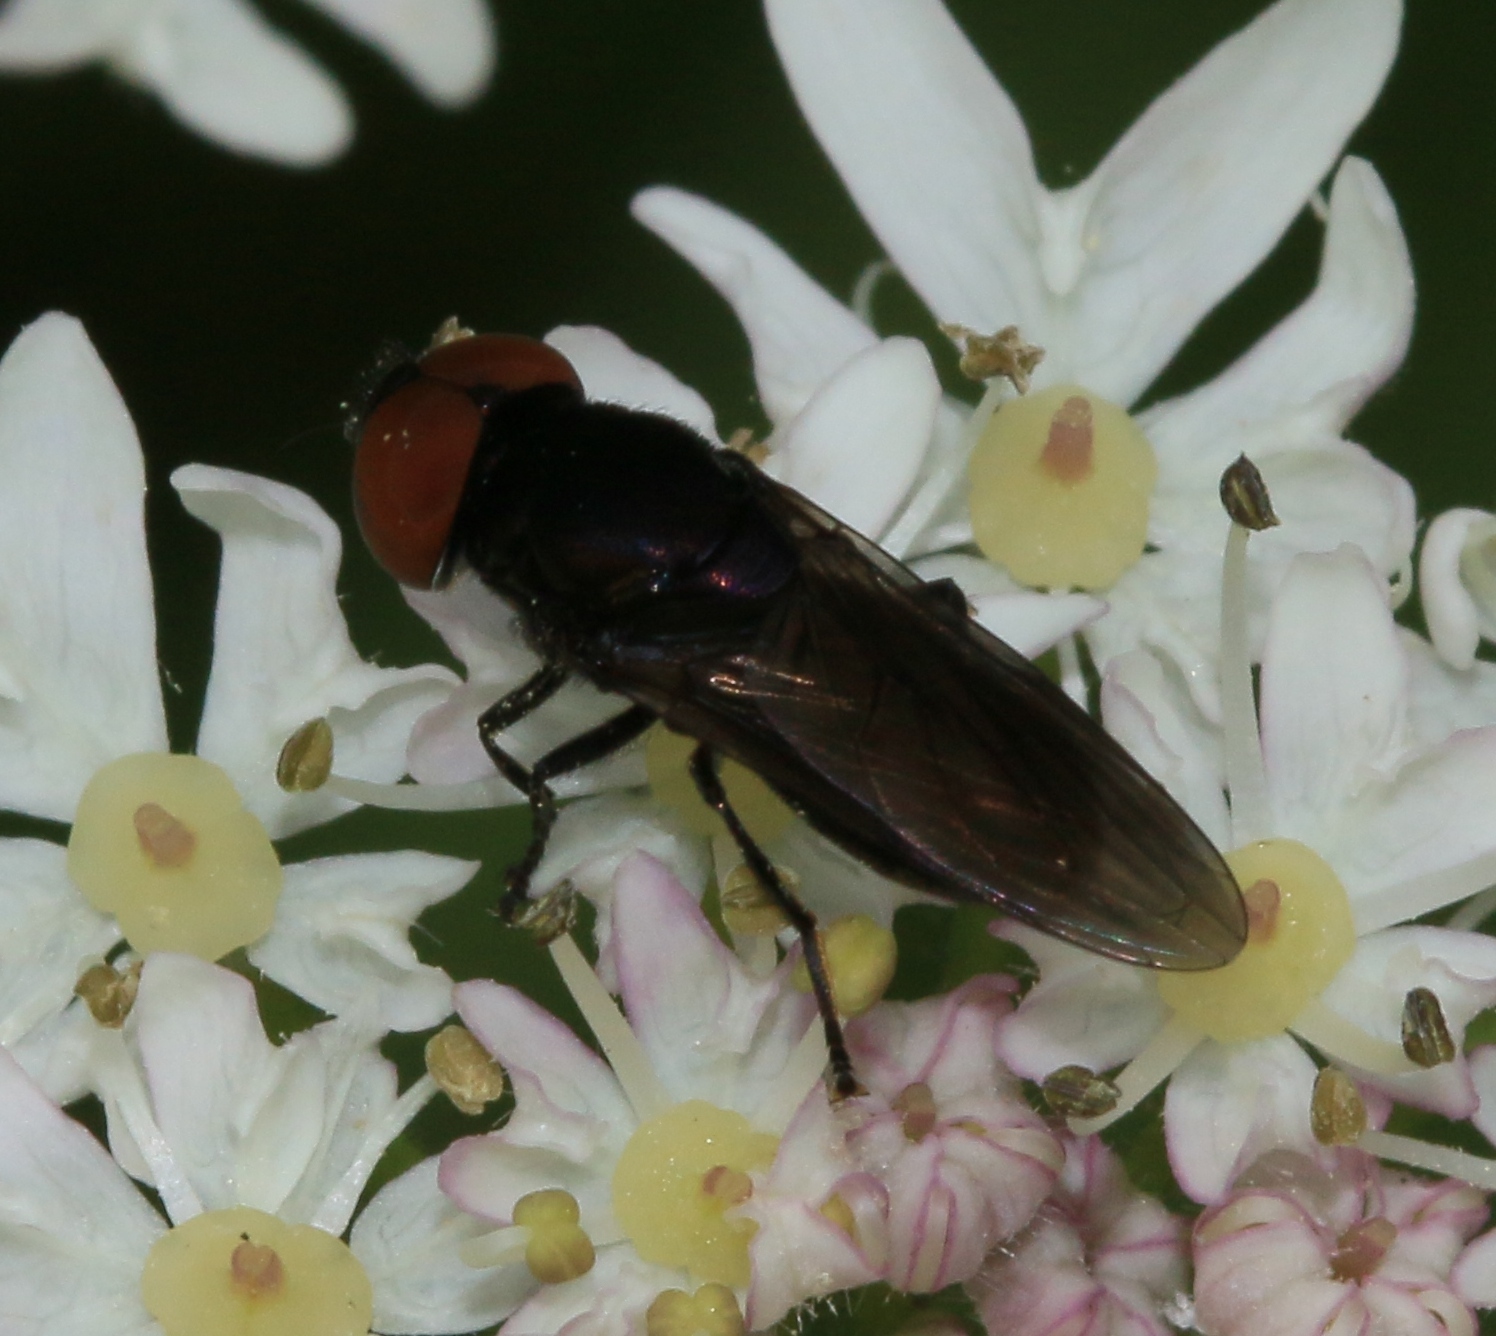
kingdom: Animalia
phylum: Arthropoda
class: Insecta
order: Diptera
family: Syrphidae
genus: Chrysogaster
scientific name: Chrysogaster solstitialis
